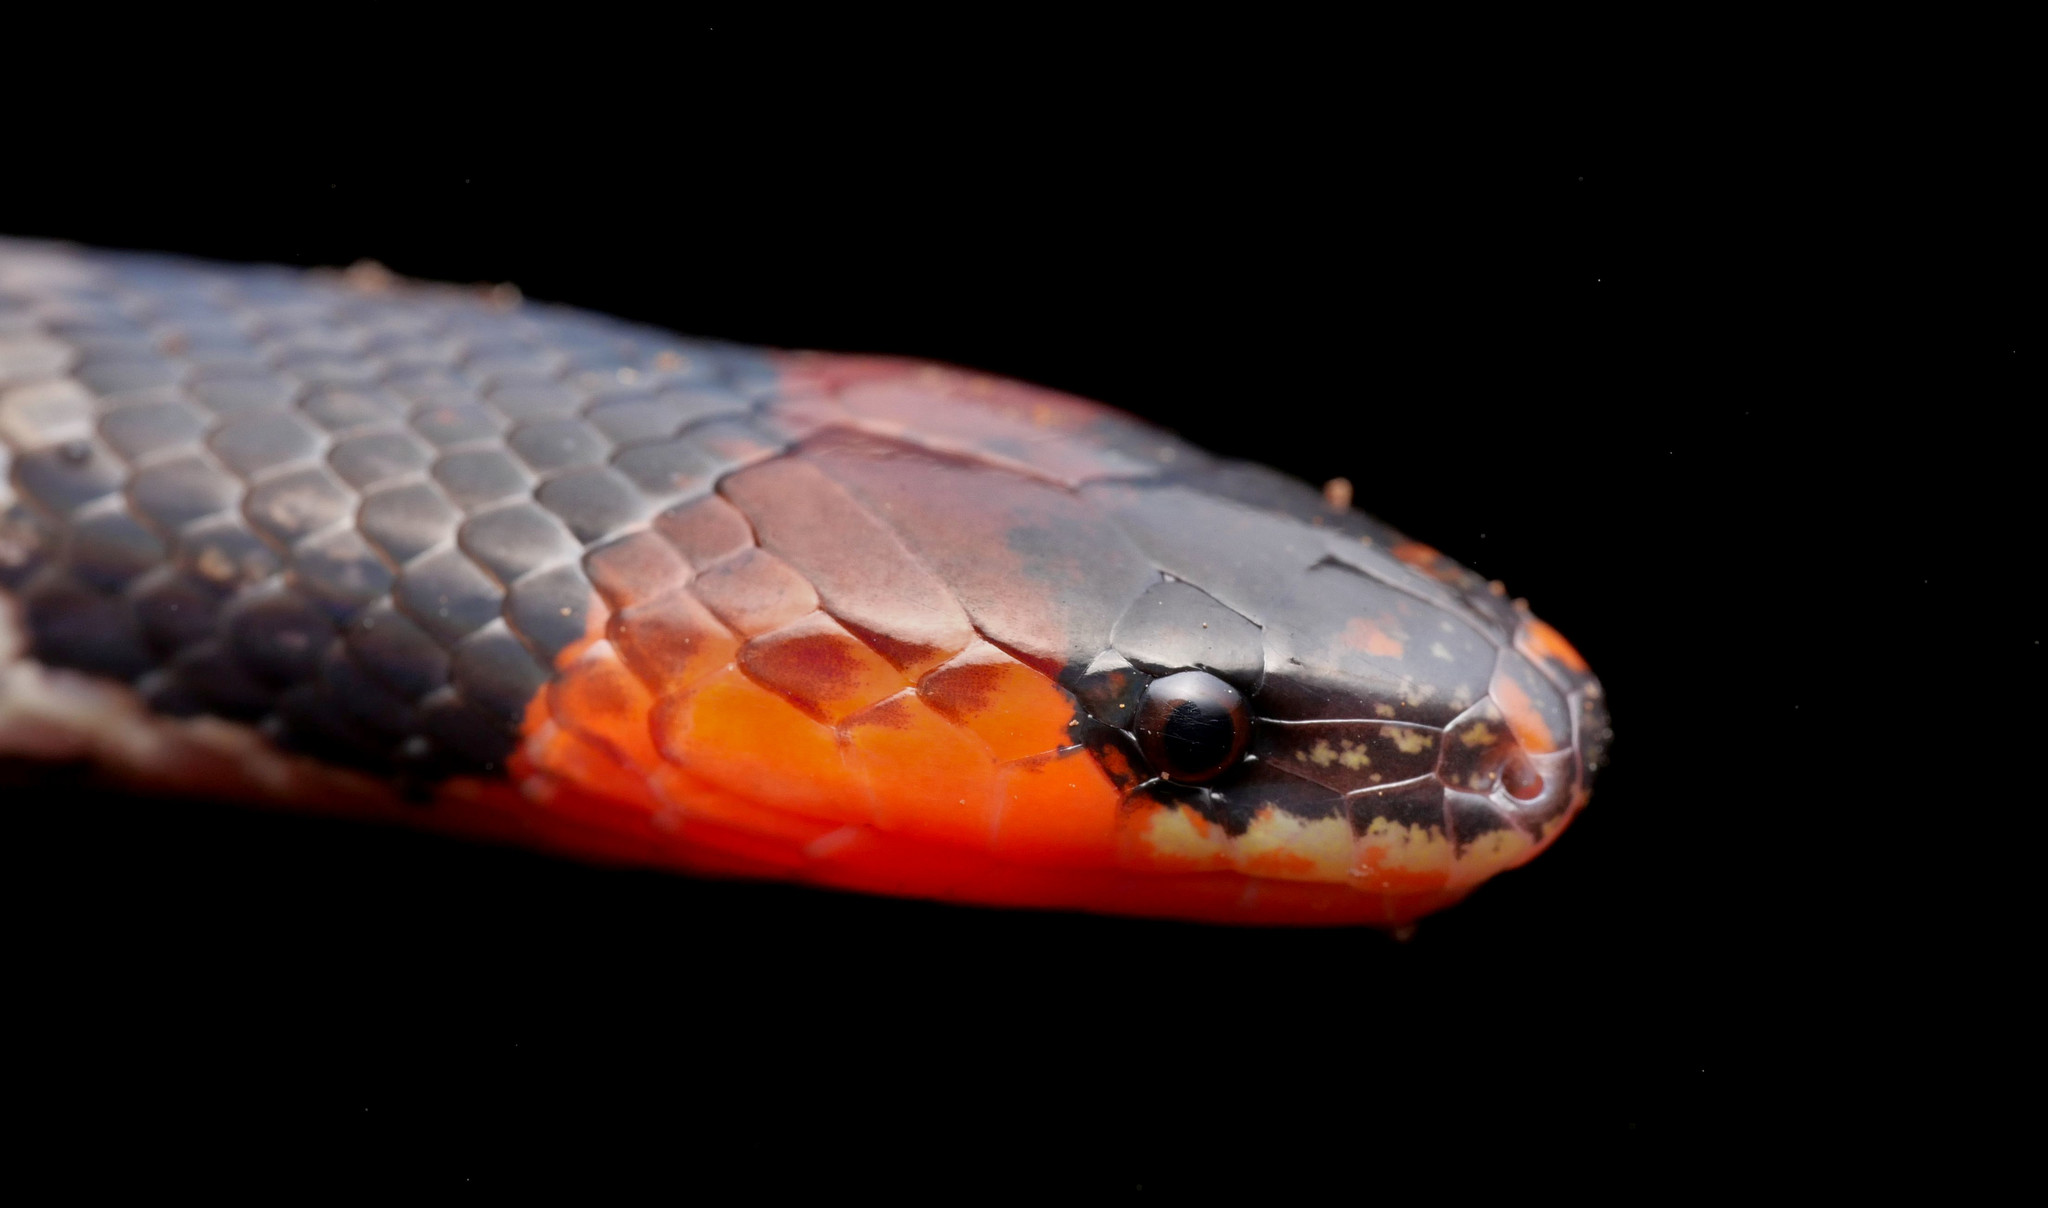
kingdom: Animalia
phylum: Chordata
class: Squamata
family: Colubridae
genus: Atractus
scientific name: Atractus clarki
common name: Clark's ground snake
